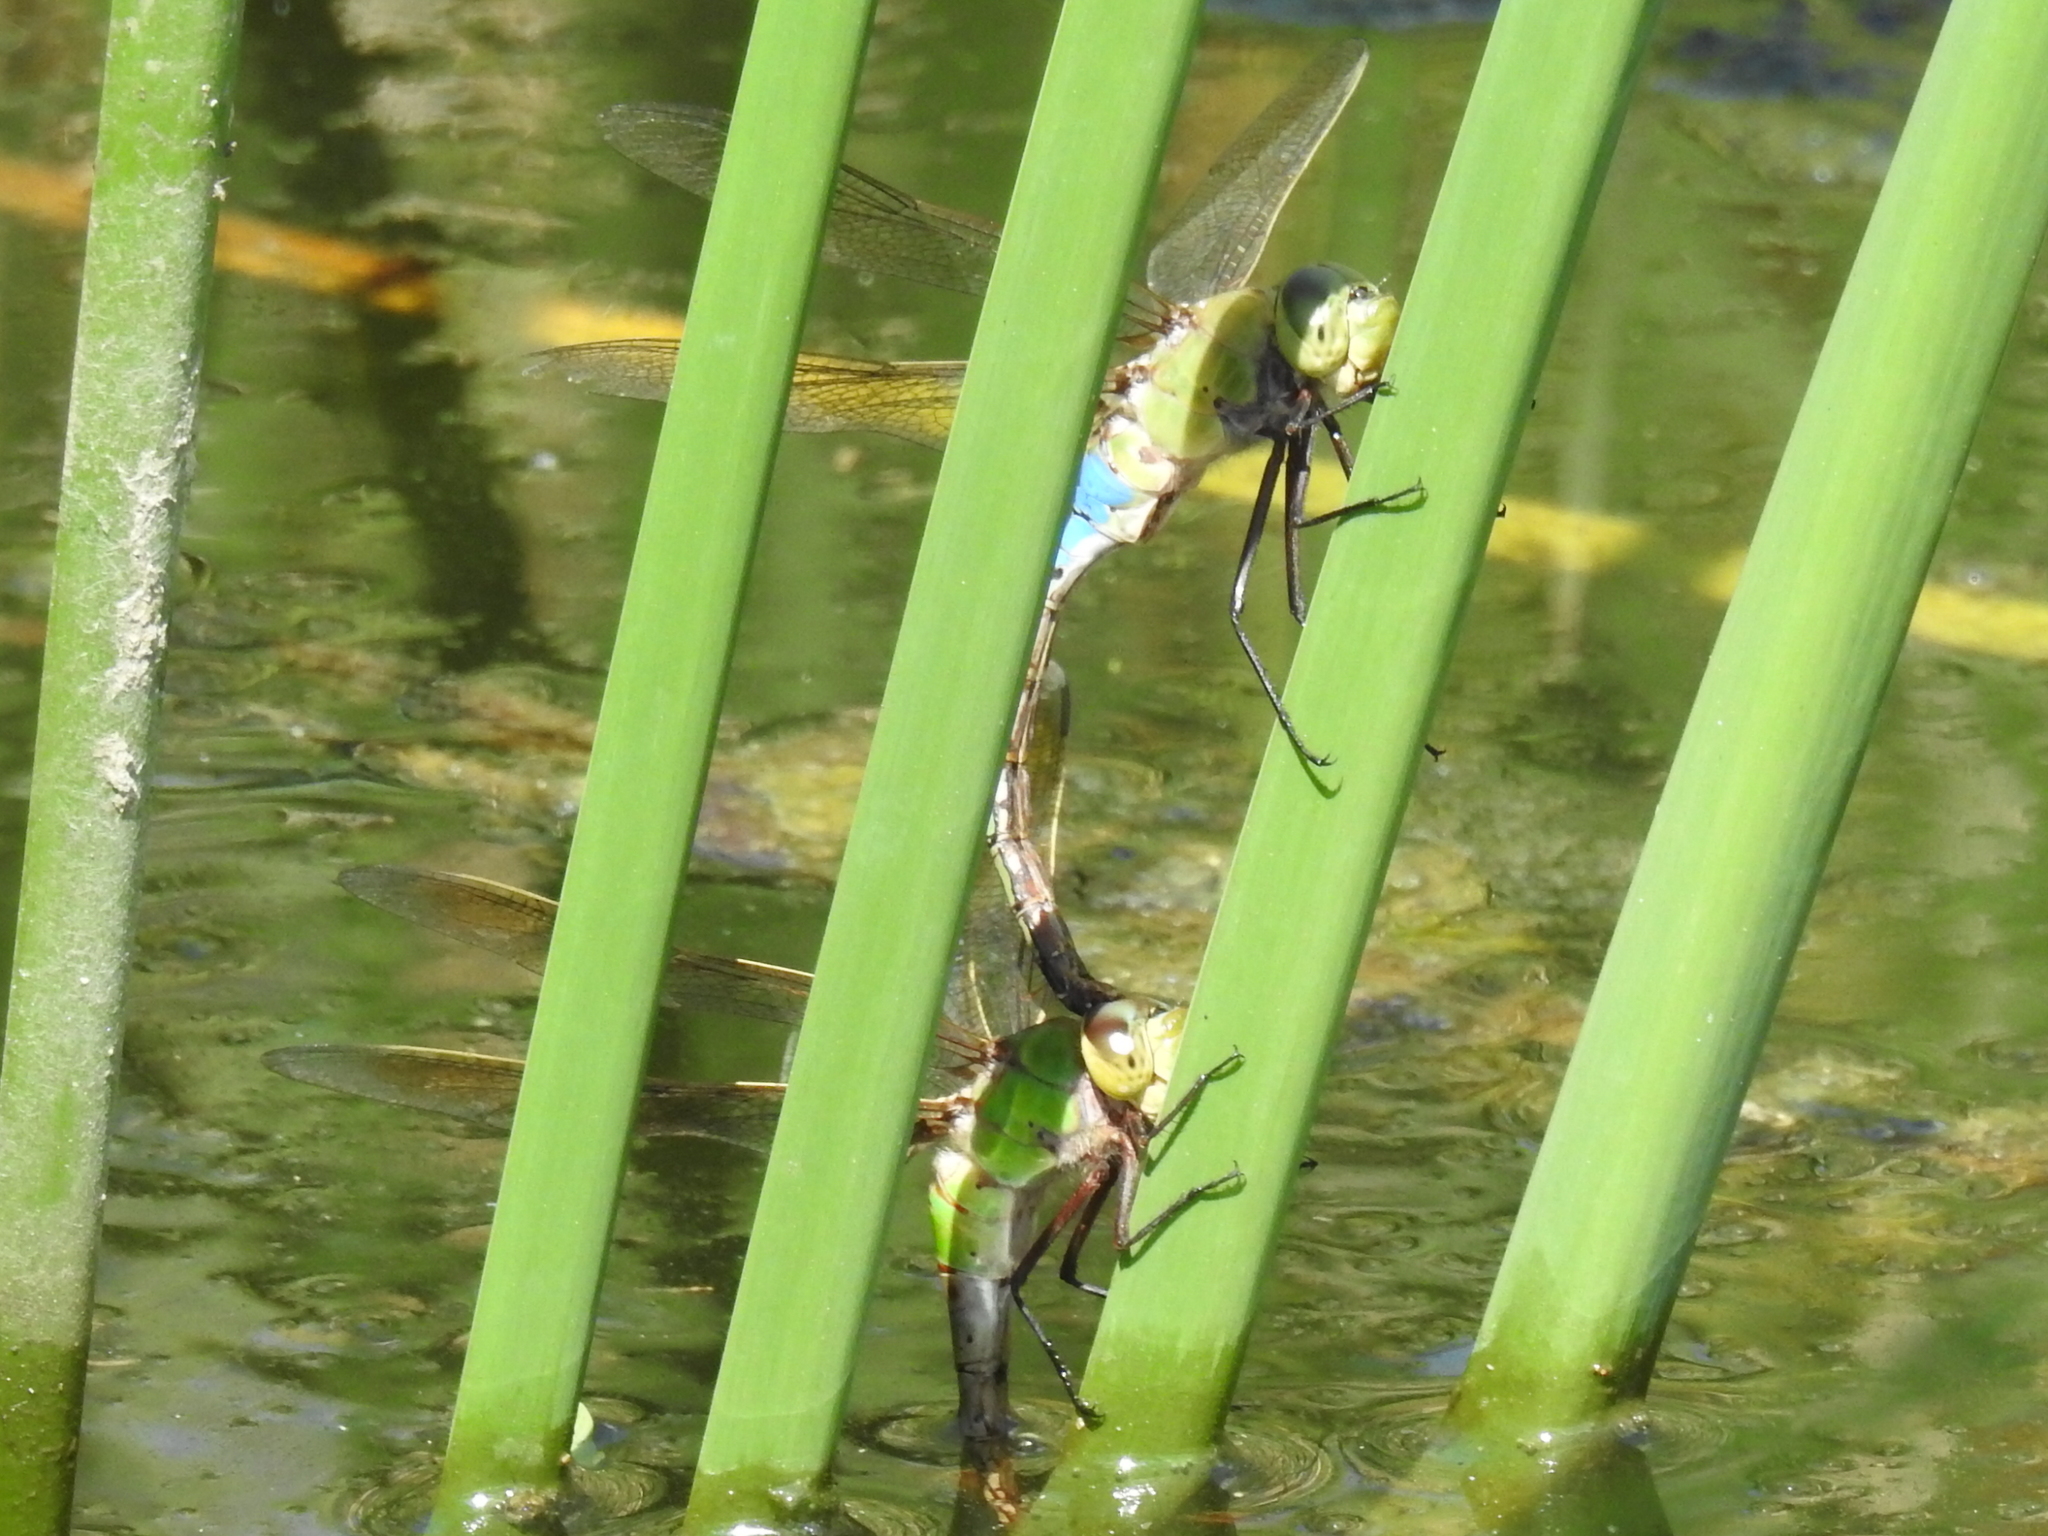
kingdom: Animalia
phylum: Arthropoda
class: Insecta
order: Odonata
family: Aeshnidae
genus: Anax
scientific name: Anax junius
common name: Common green darner
